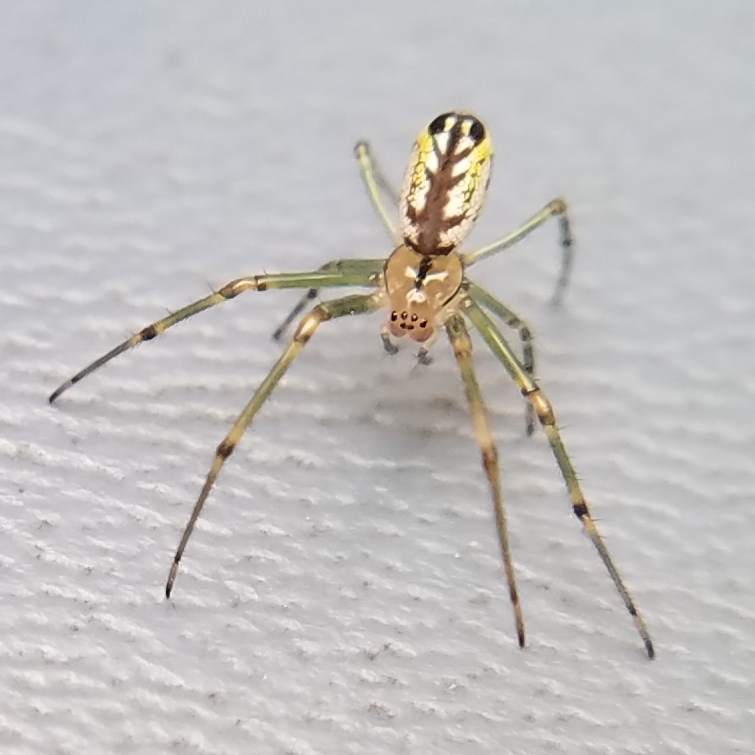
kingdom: Animalia
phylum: Arthropoda
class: Arachnida
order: Araneae
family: Tetragnathidae
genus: Leucauge
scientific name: Leucauge venusta
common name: Longjawed orb weavers
